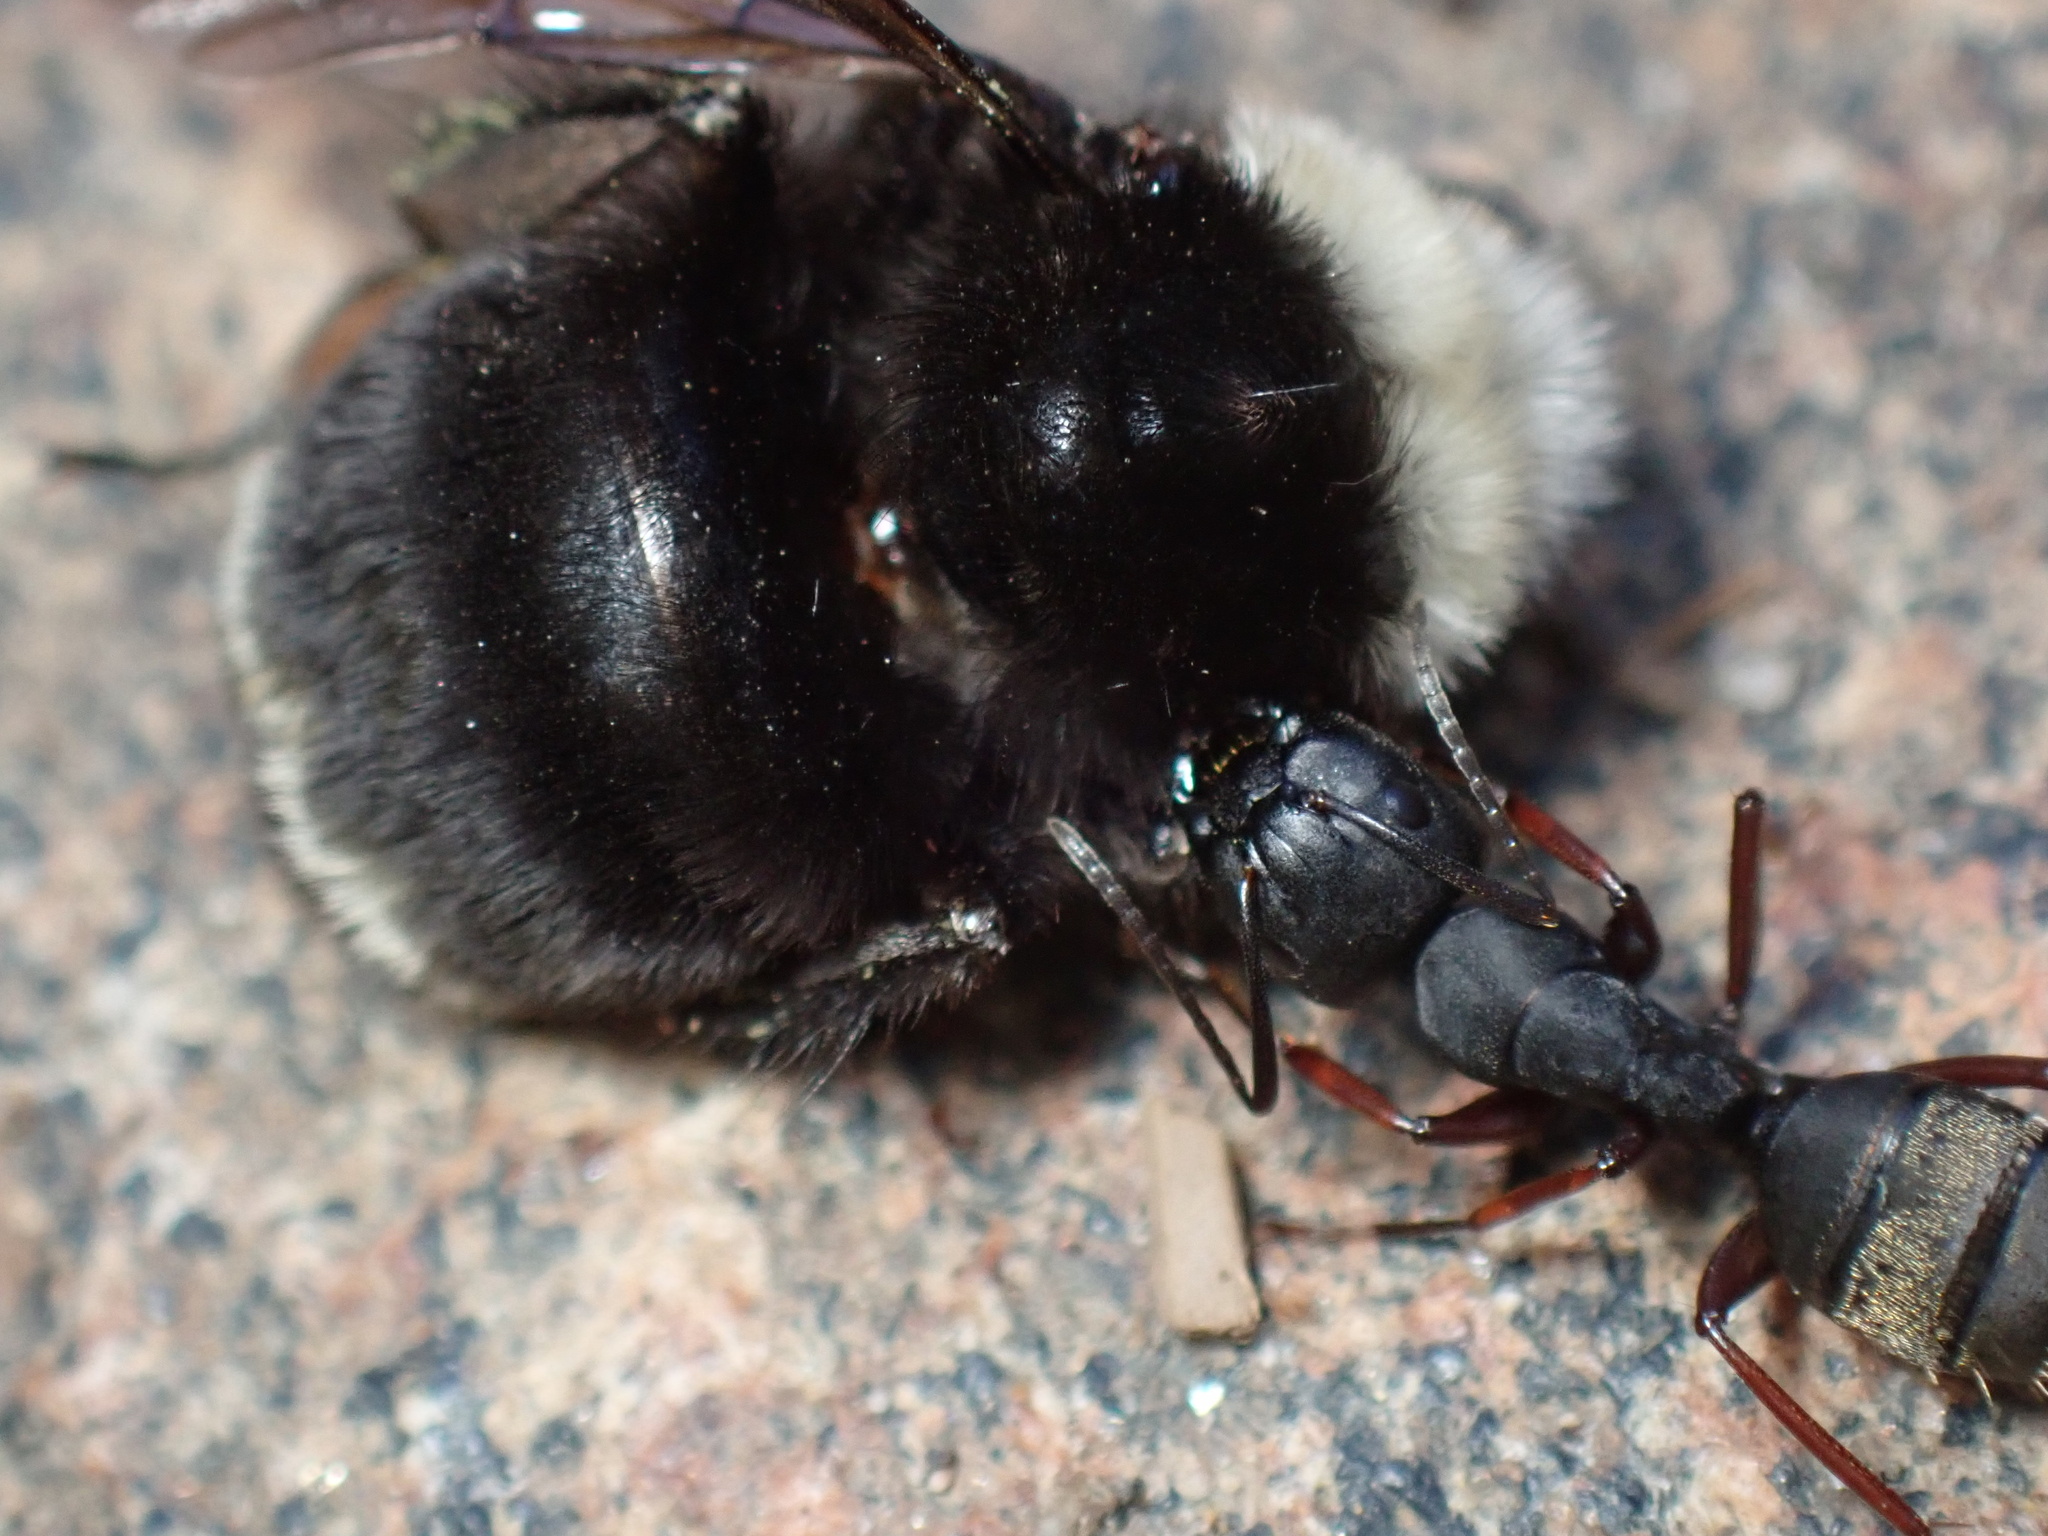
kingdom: Animalia
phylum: Arthropoda
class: Insecta
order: Hymenoptera
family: Apidae
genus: Bombus
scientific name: Bombus vosnesenskii
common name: Vosnesensky bumble bee
